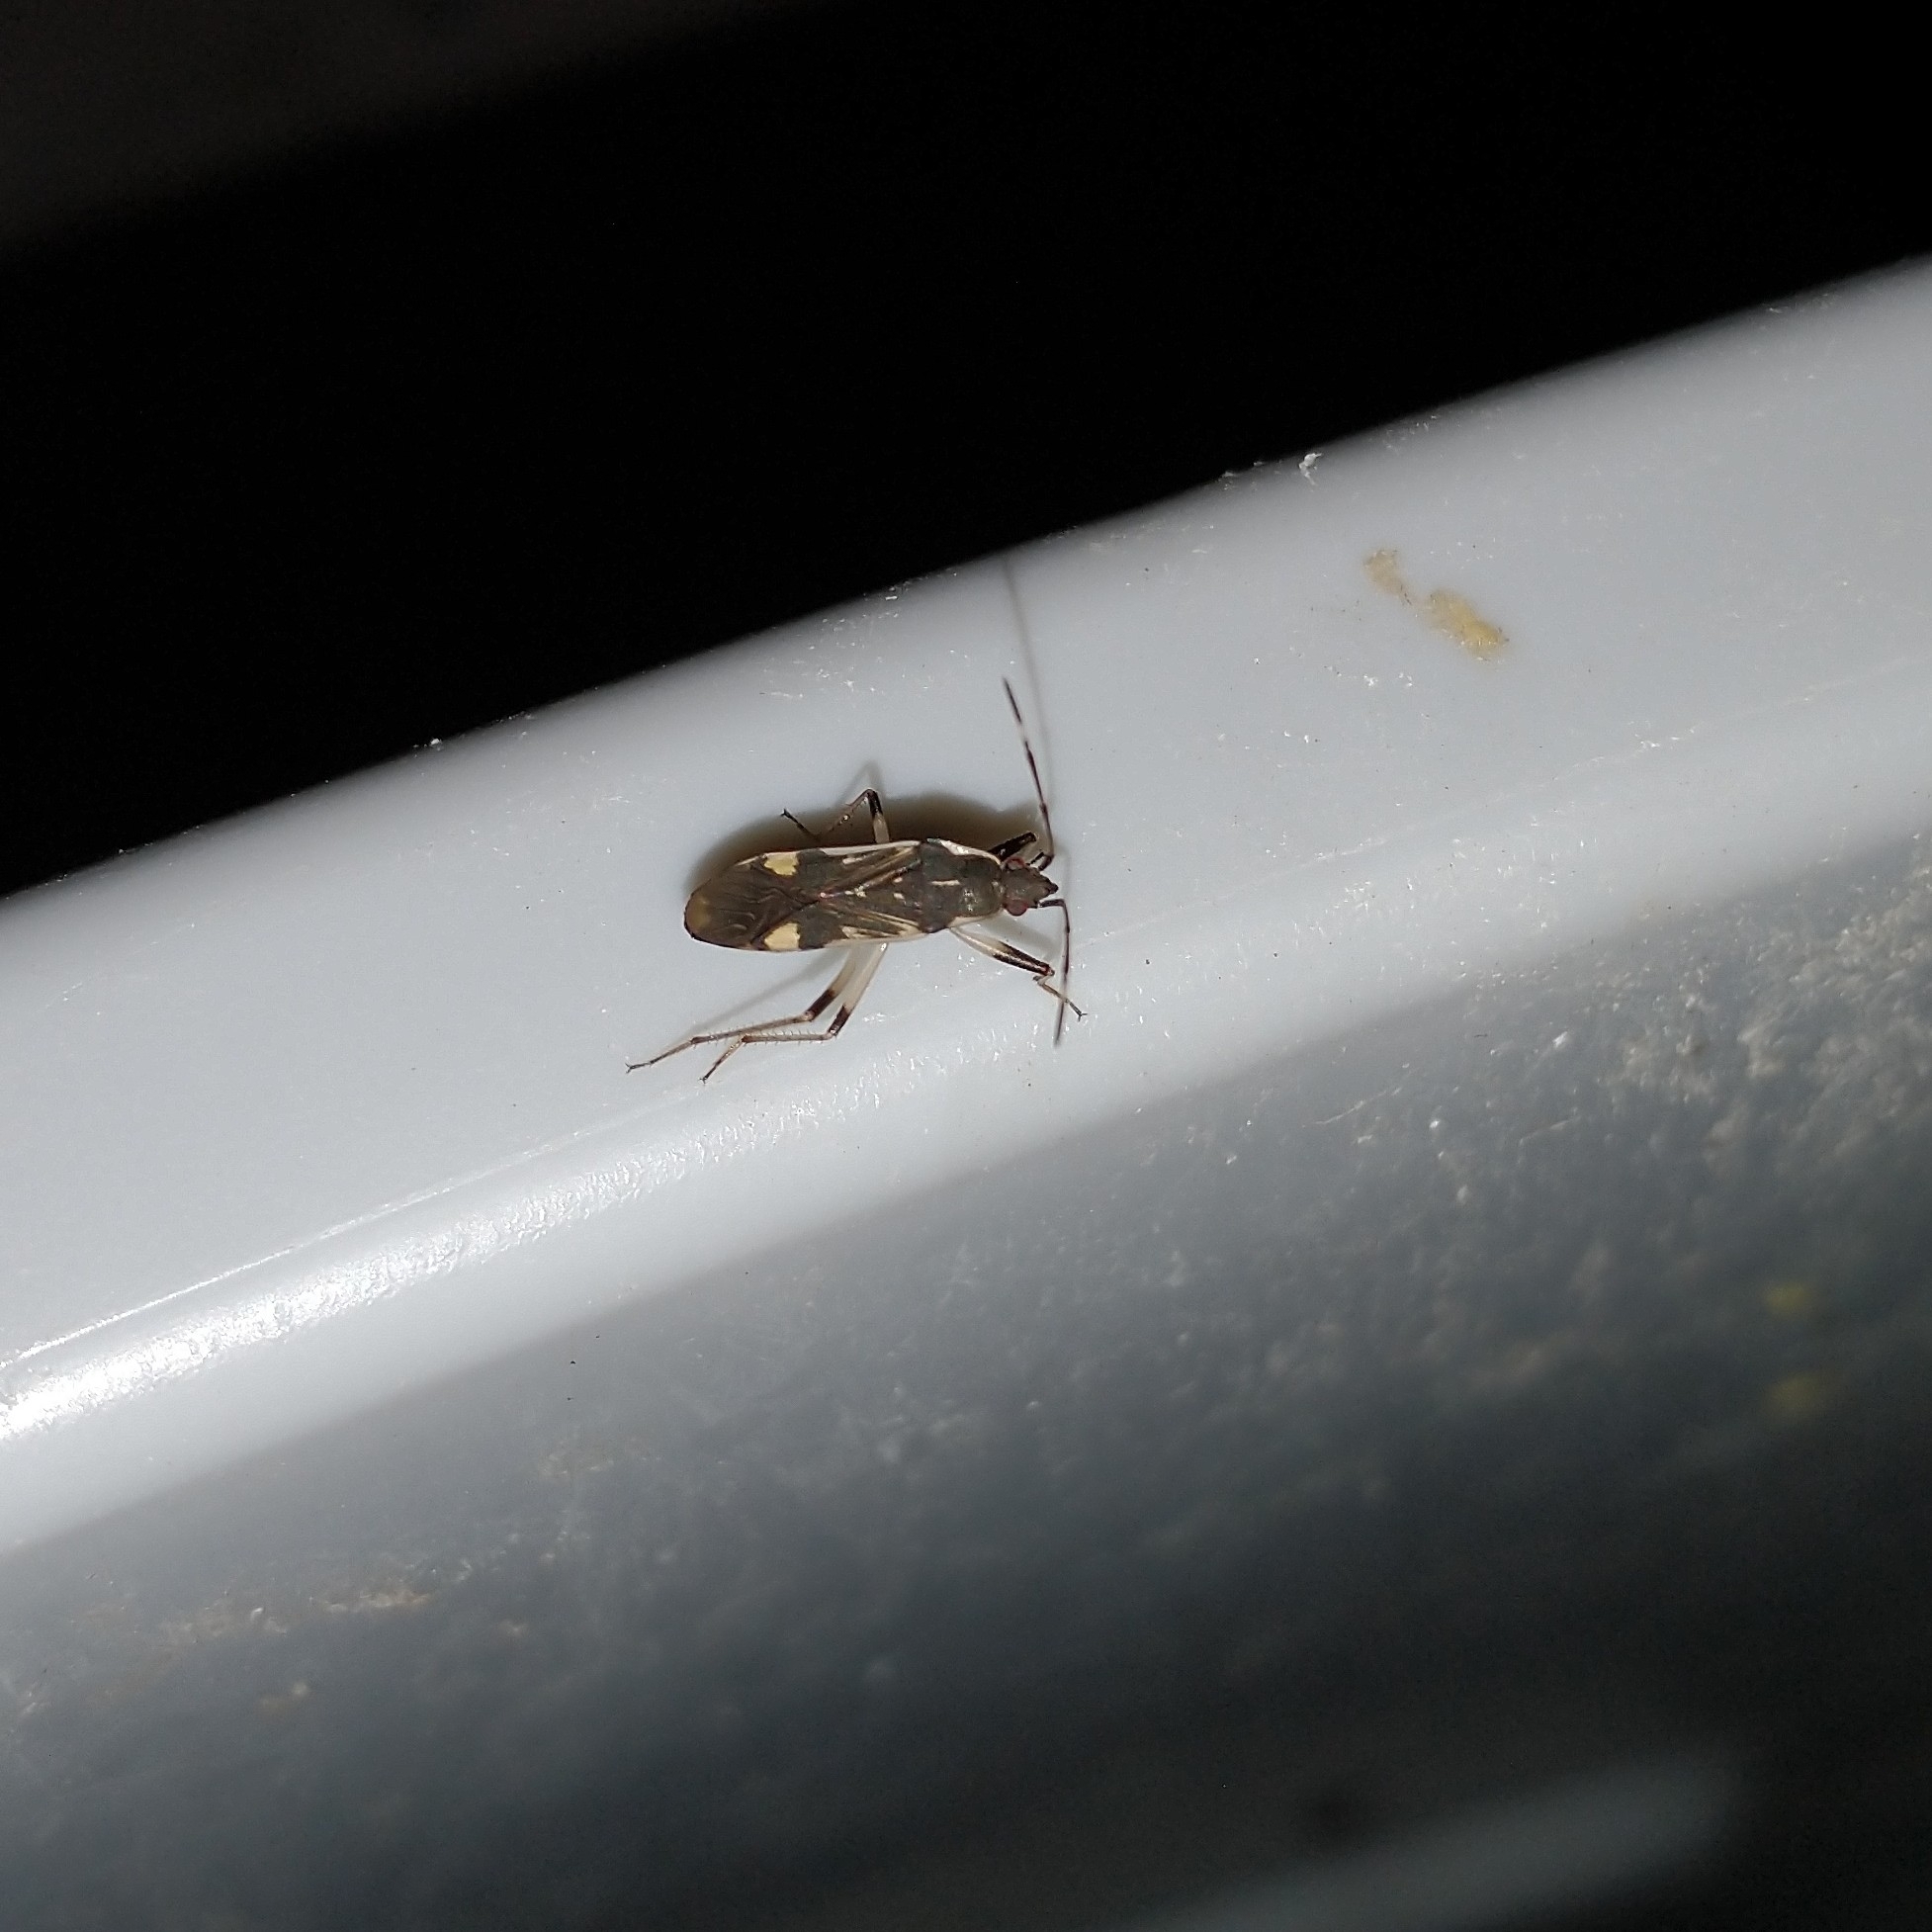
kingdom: Animalia
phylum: Arthropoda
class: Insecta
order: Hemiptera
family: Rhyparochromidae
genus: Dieuches
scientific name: Dieuches armatipes
